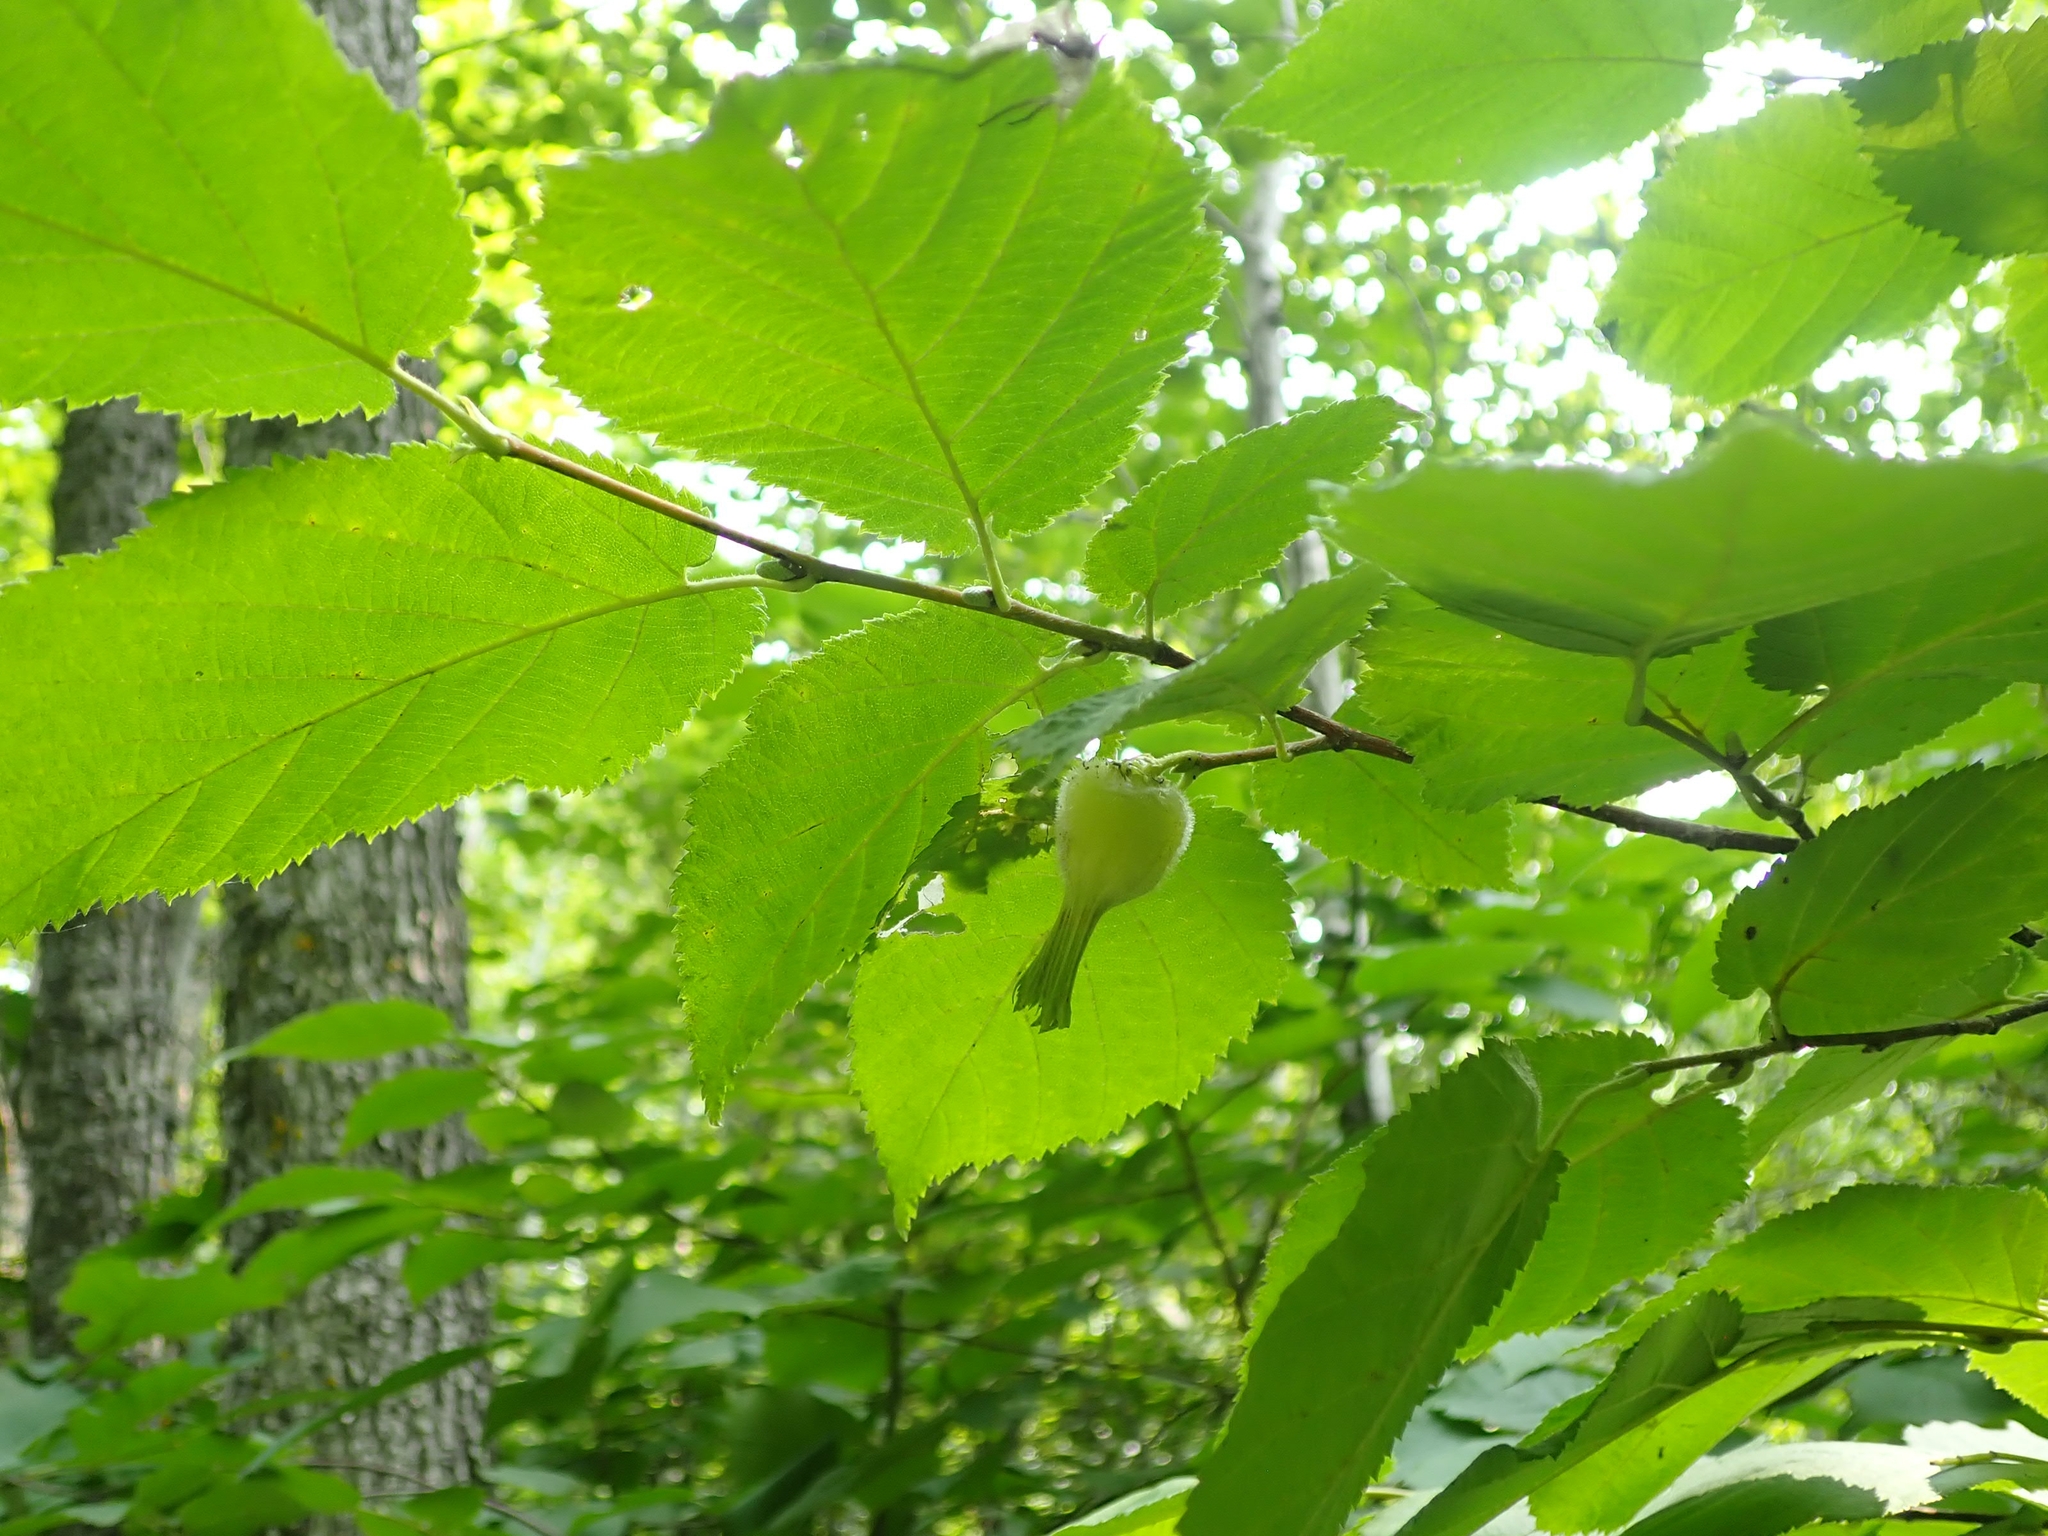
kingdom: Plantae
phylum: Tracheophyta
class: Magnoliopsida
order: Fagales
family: Betulaceae
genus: Corylus
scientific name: Corylus cornuta
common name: Beaked hazel
